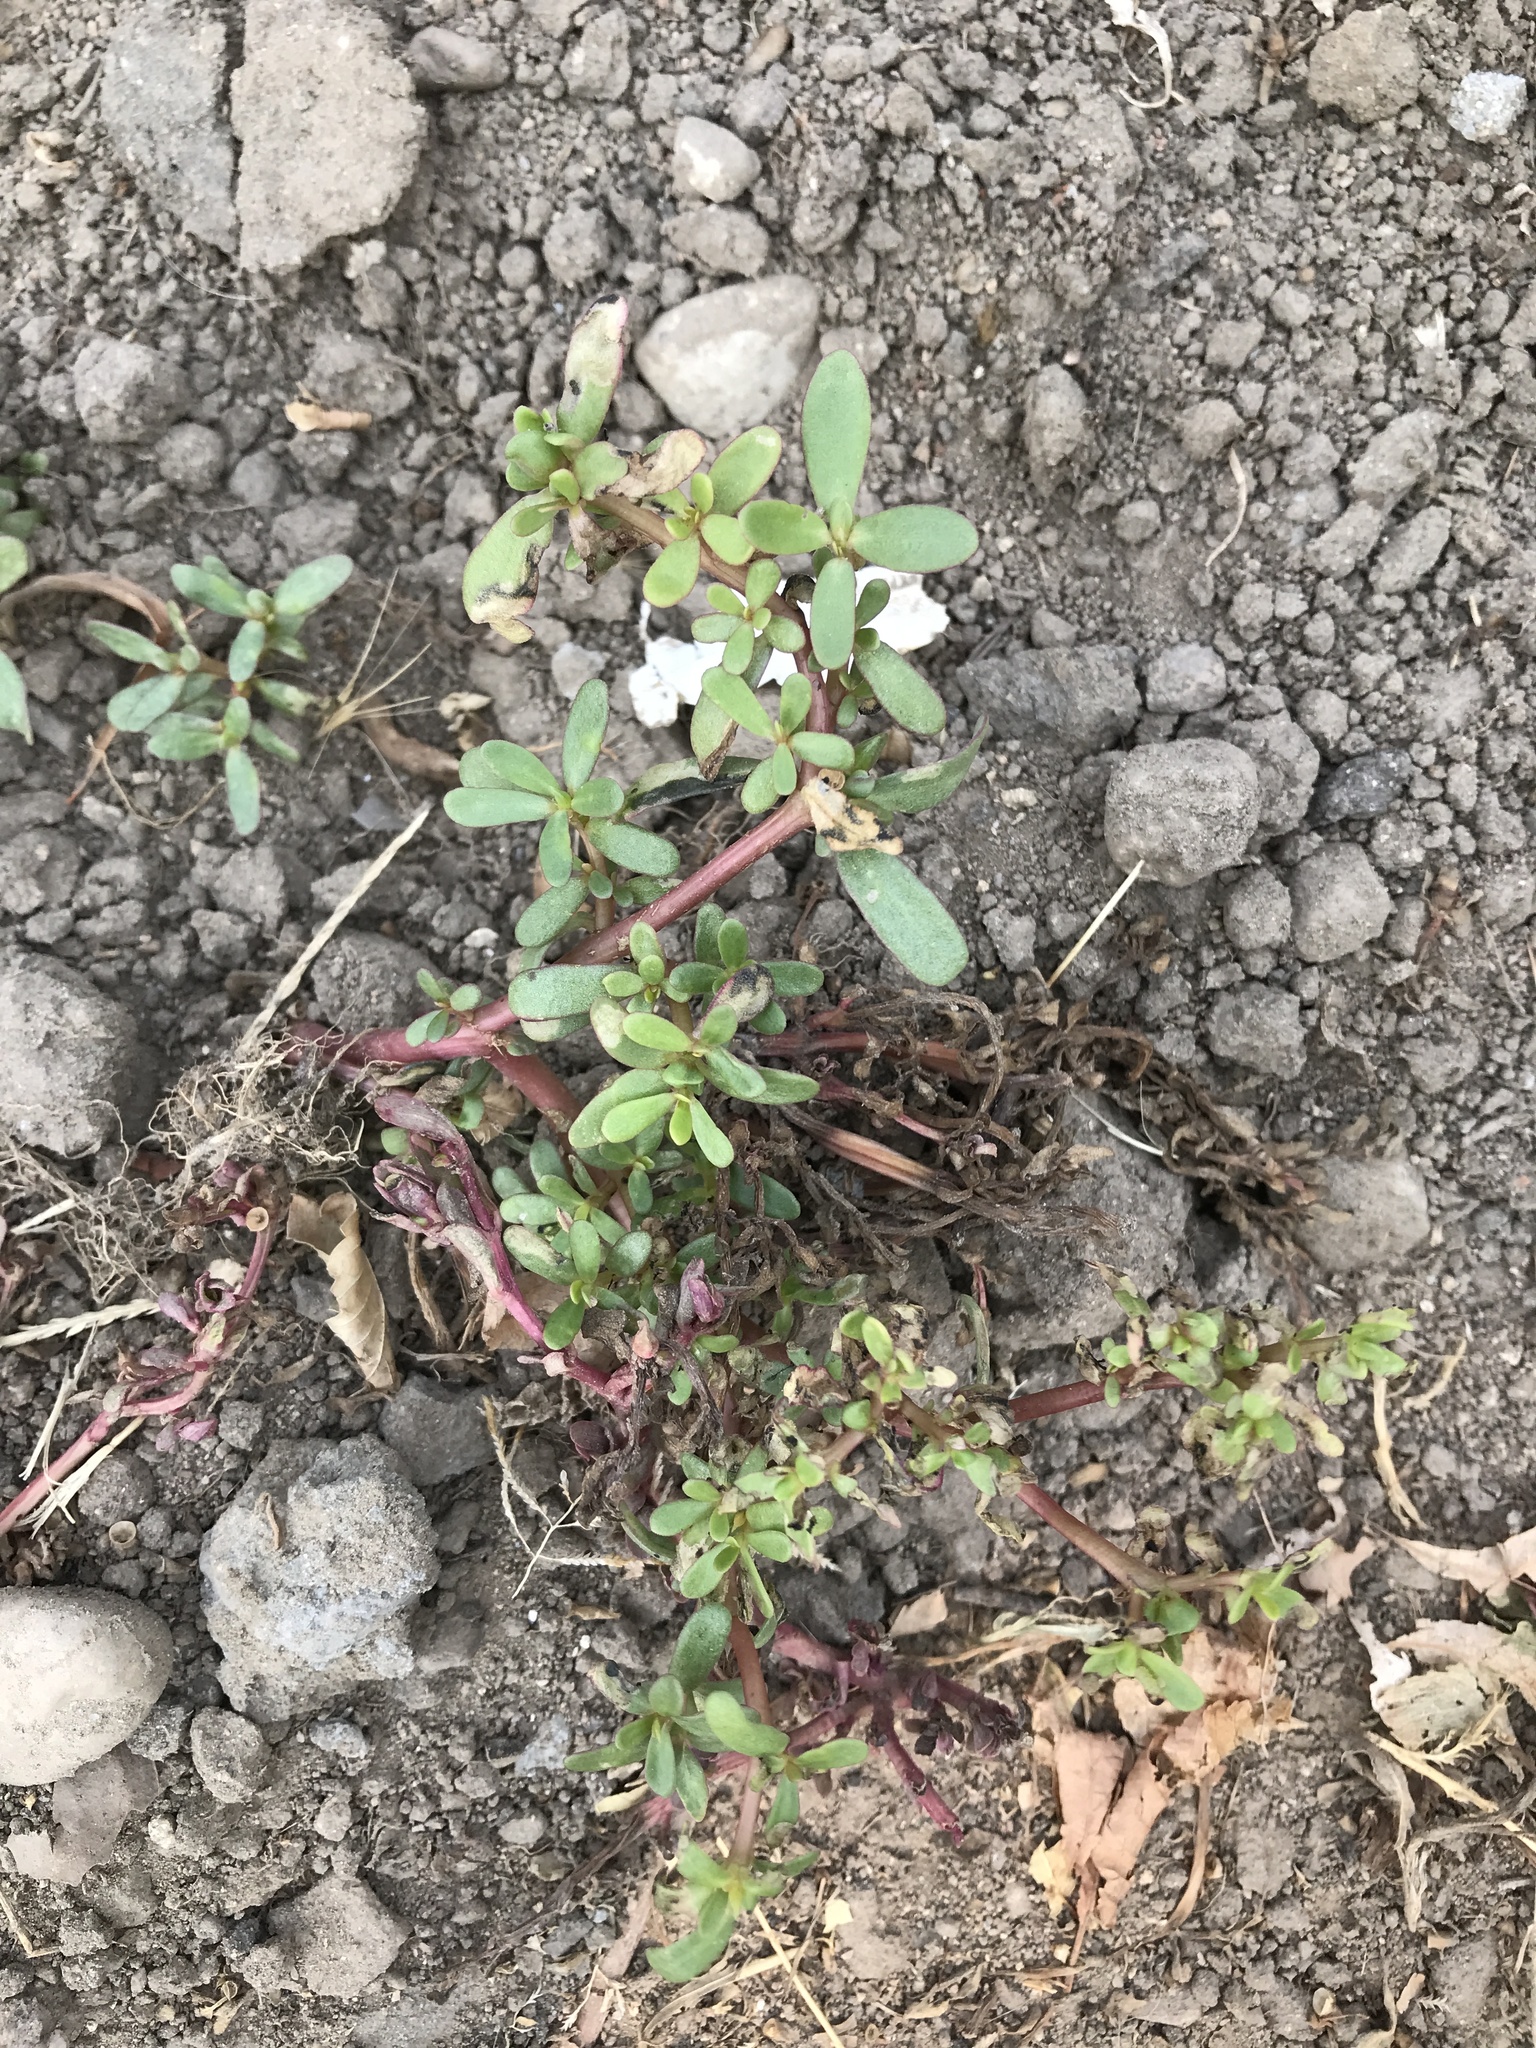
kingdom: Plantae
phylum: Tracheophyta
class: Magnoliopsida
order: Caryophyllales
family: Portulacaceae
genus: Portulaca
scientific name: Portulaca oleracea
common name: Common purslane
